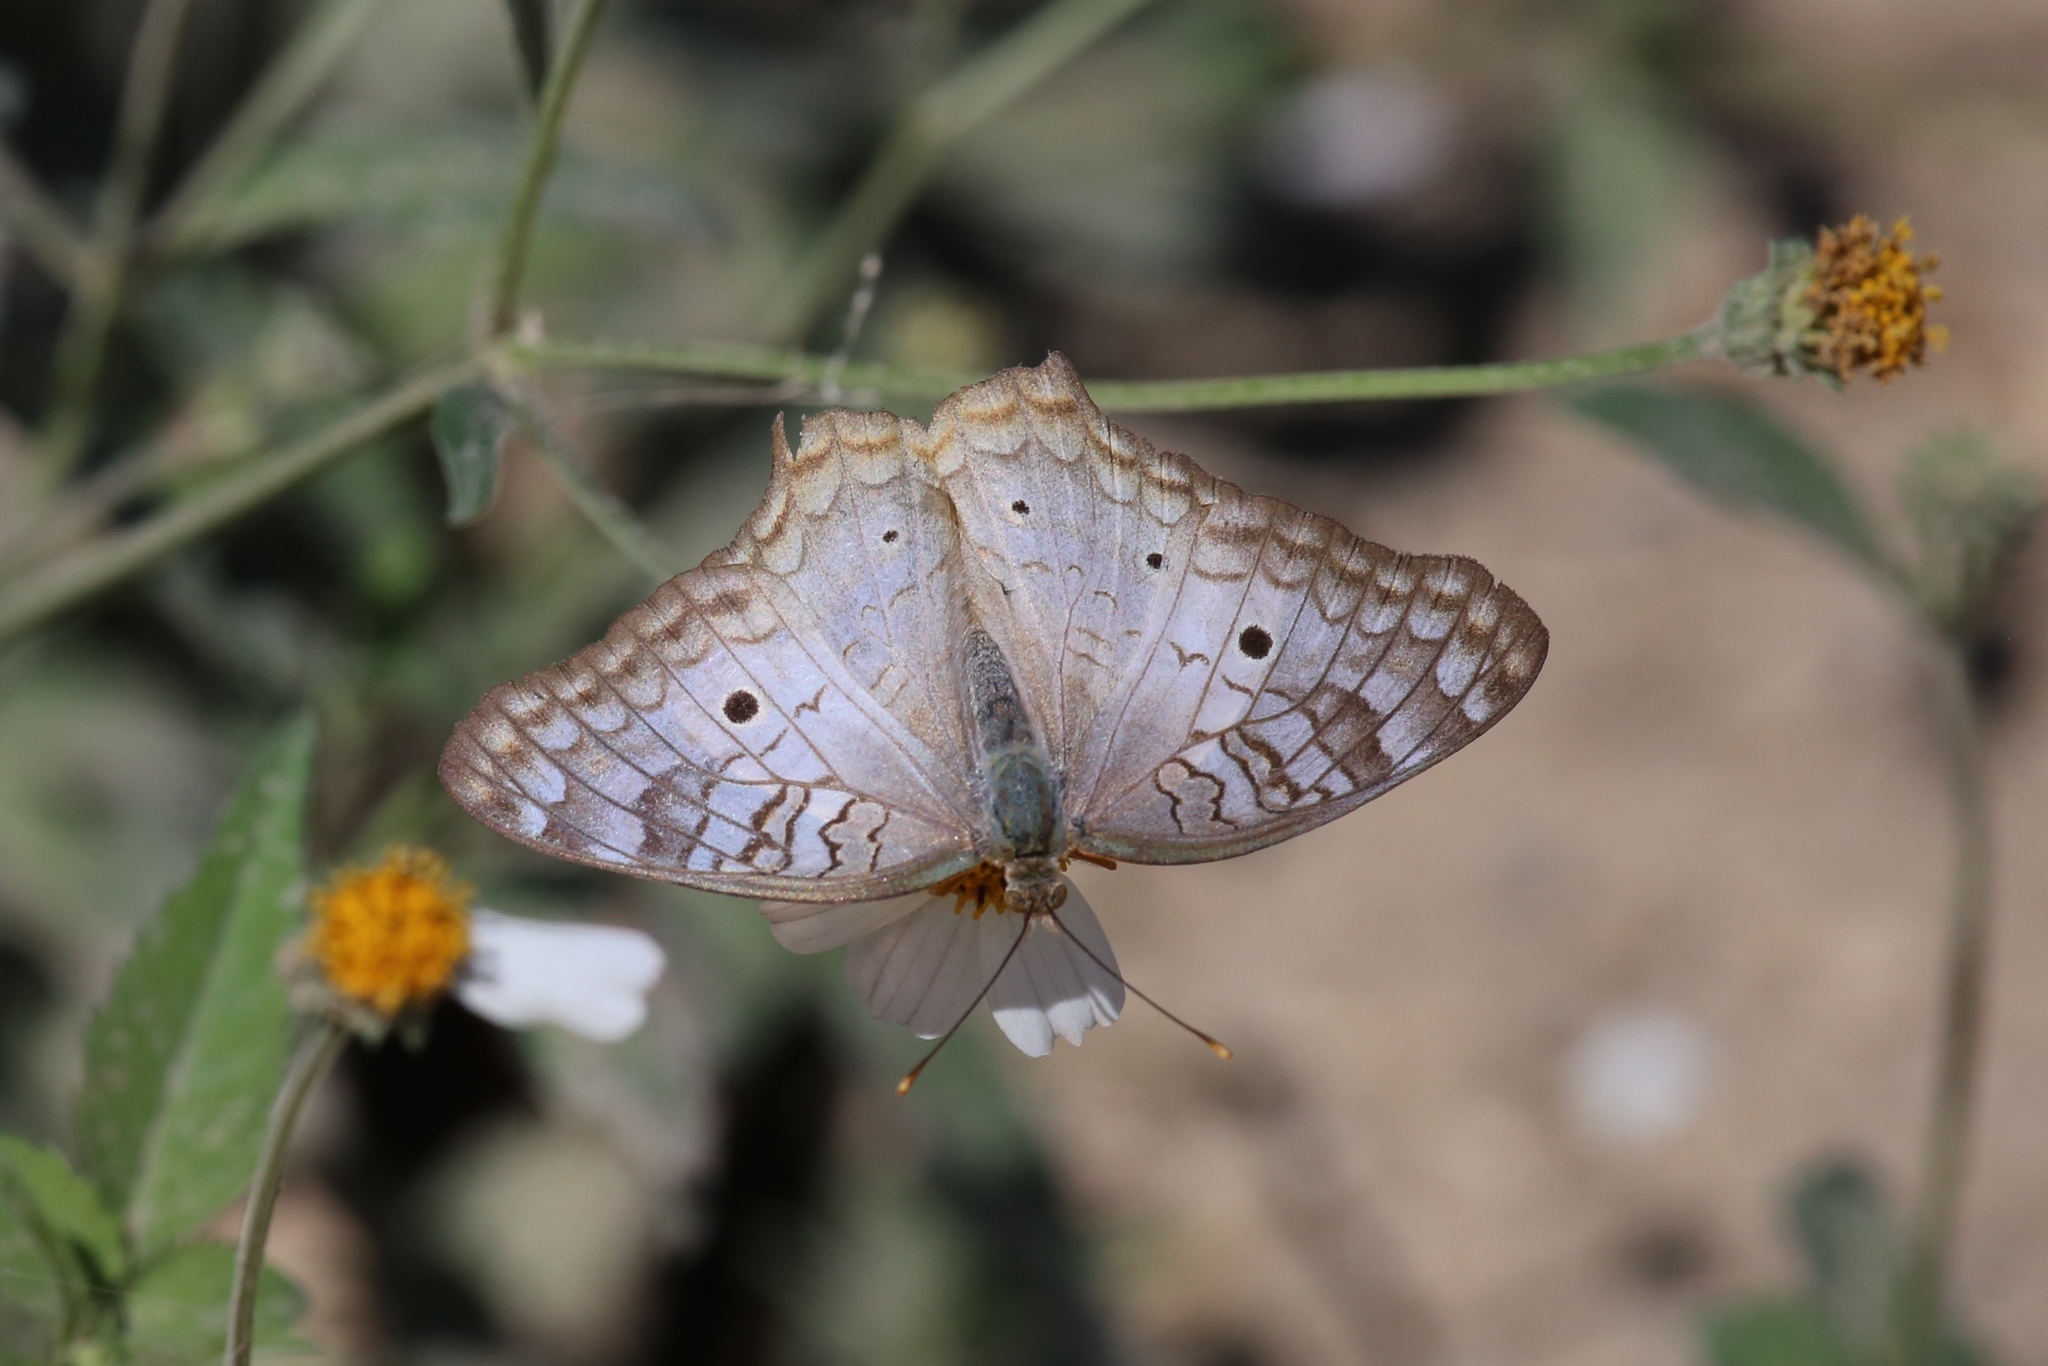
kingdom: Animalia
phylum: Arthropoda
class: Insecta
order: Lepidoptera
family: Nymphalidae
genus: Anartia
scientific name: Anartia jatrophae
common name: White peacock
